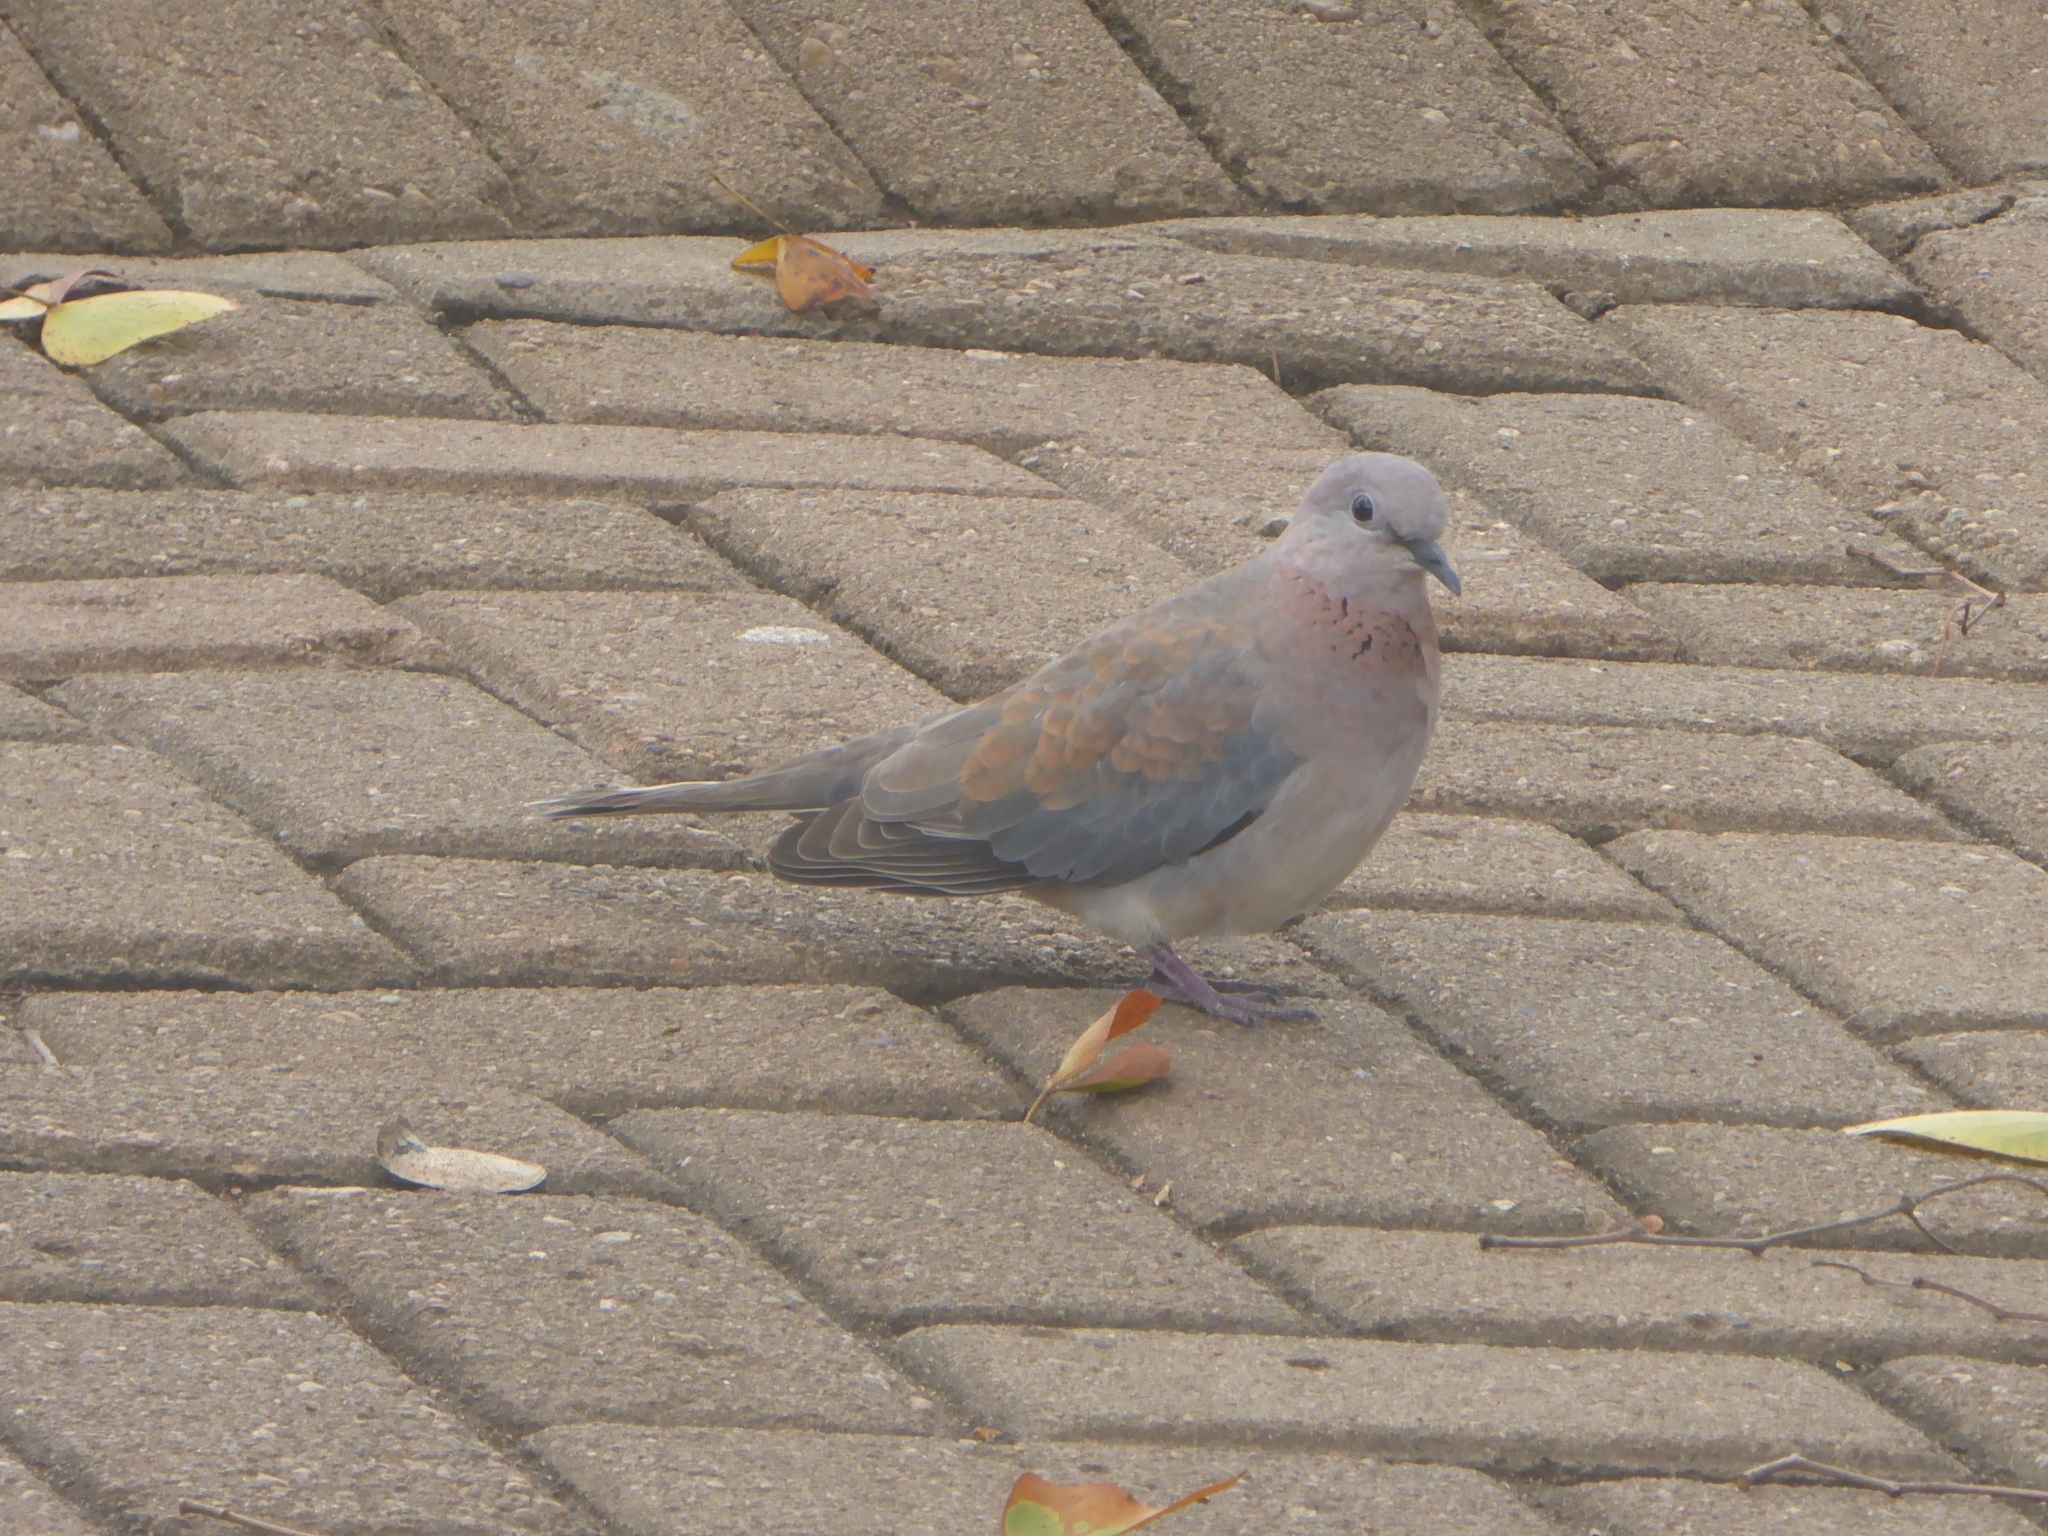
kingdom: Animalia
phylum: Chordata
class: Aves
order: Columbiformes
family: Columbidae
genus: Spilopelia
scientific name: Spilopelia senegalensis
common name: Laughing dove
